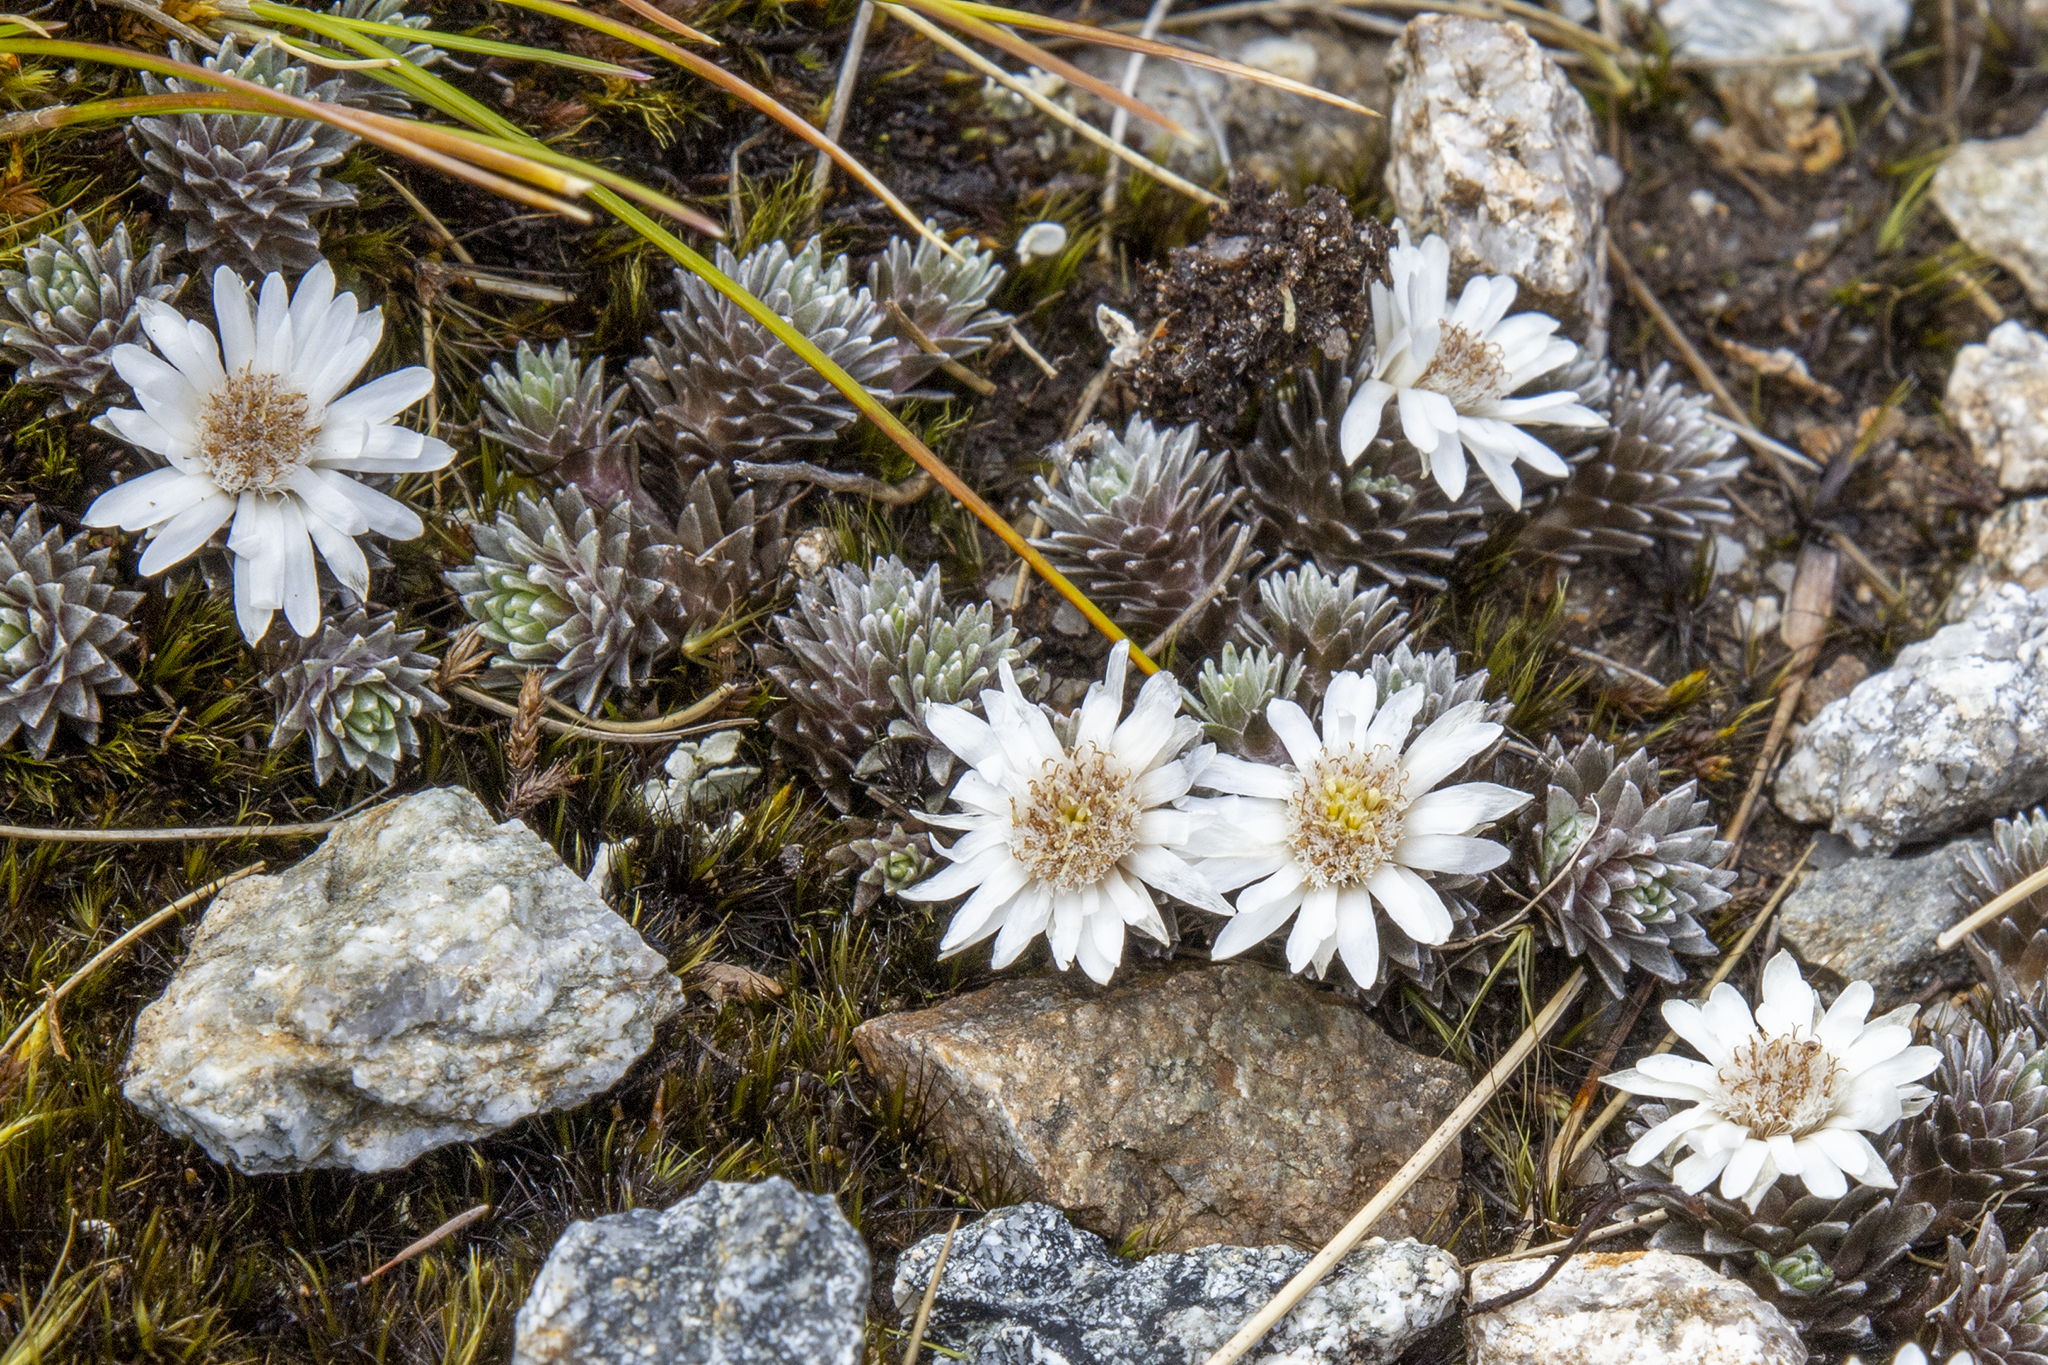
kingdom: Plantae
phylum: Tracheophyta
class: Magnoliopsida
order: Asterales
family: Asteraceae
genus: Raoulia
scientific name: Raoulia grandiflora
